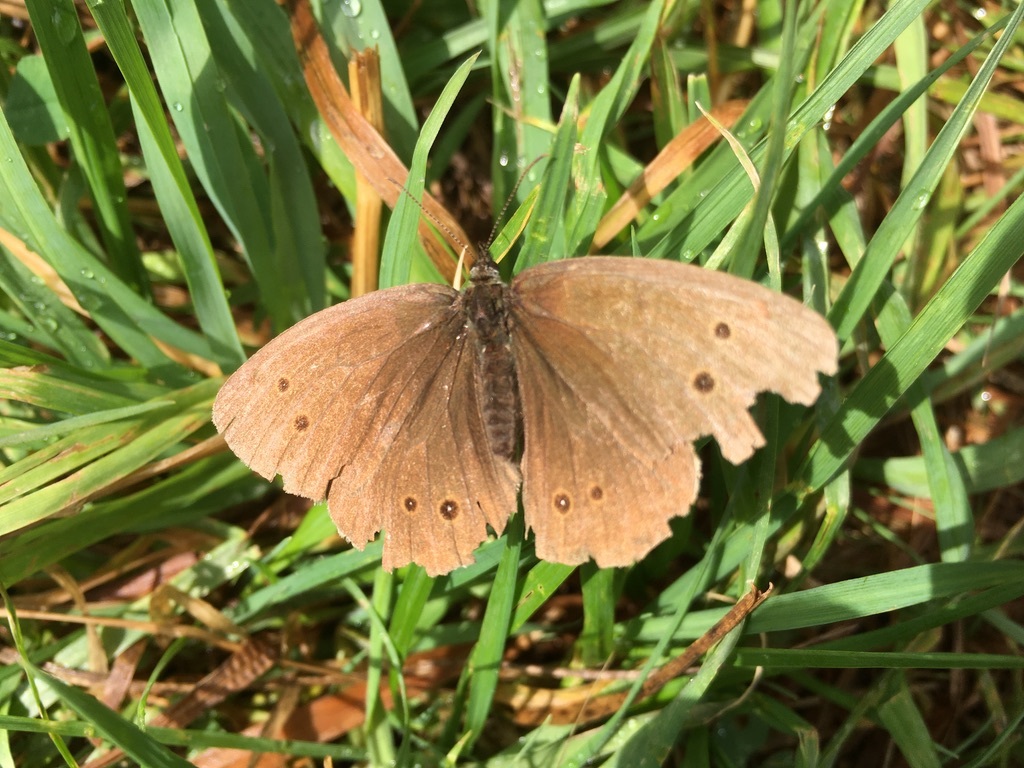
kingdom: Animalia
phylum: Arthropoda
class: Insecta
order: Lepidoptera
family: Nymphalidae
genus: Aphantopus
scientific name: Aphantopus hyperantus
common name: Ringlet
